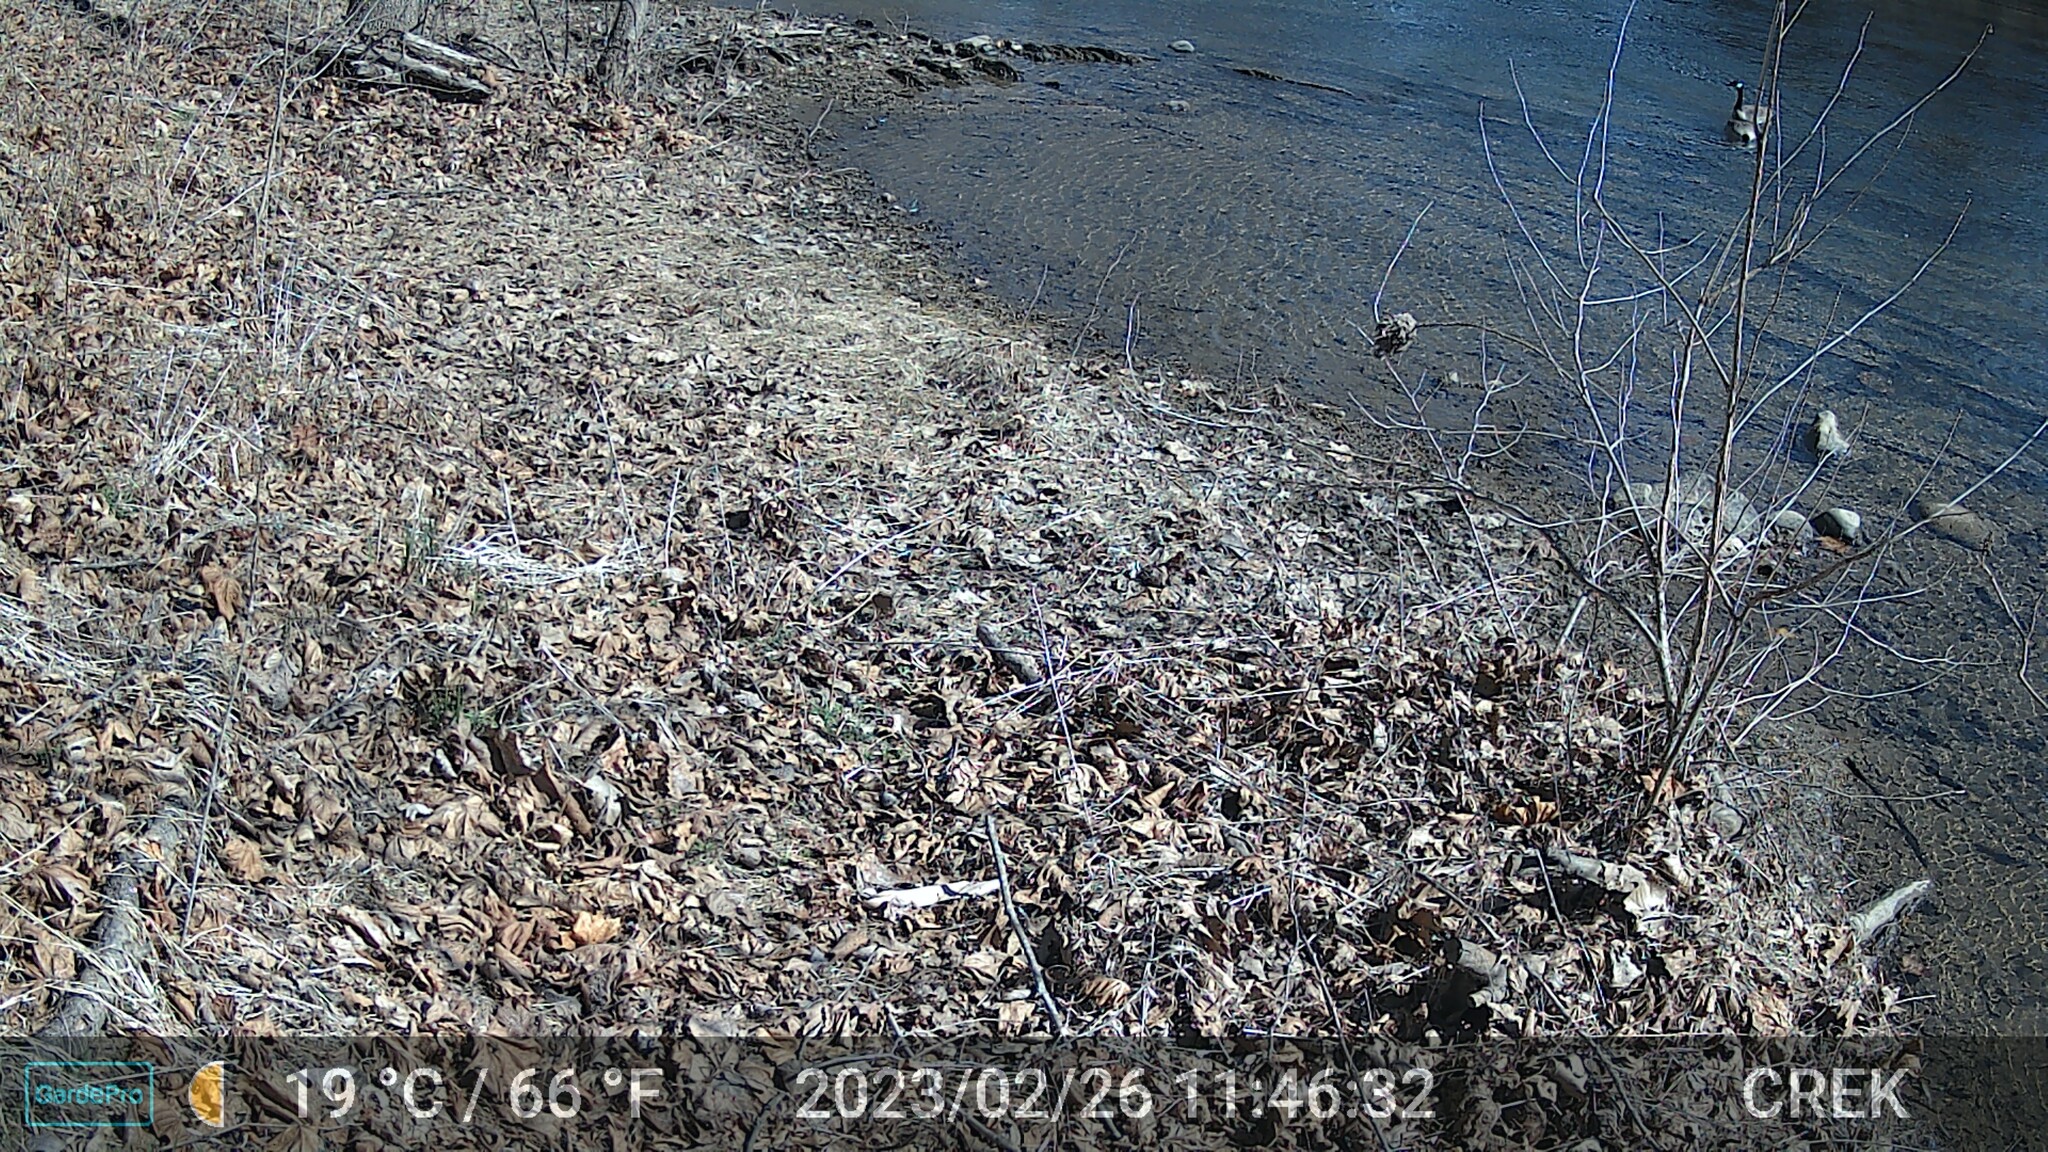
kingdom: Animalia
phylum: Chordata
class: Aves
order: Anseriformes
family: Anatidae
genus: Branta
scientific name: Branta canadensis
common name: Canada goose
